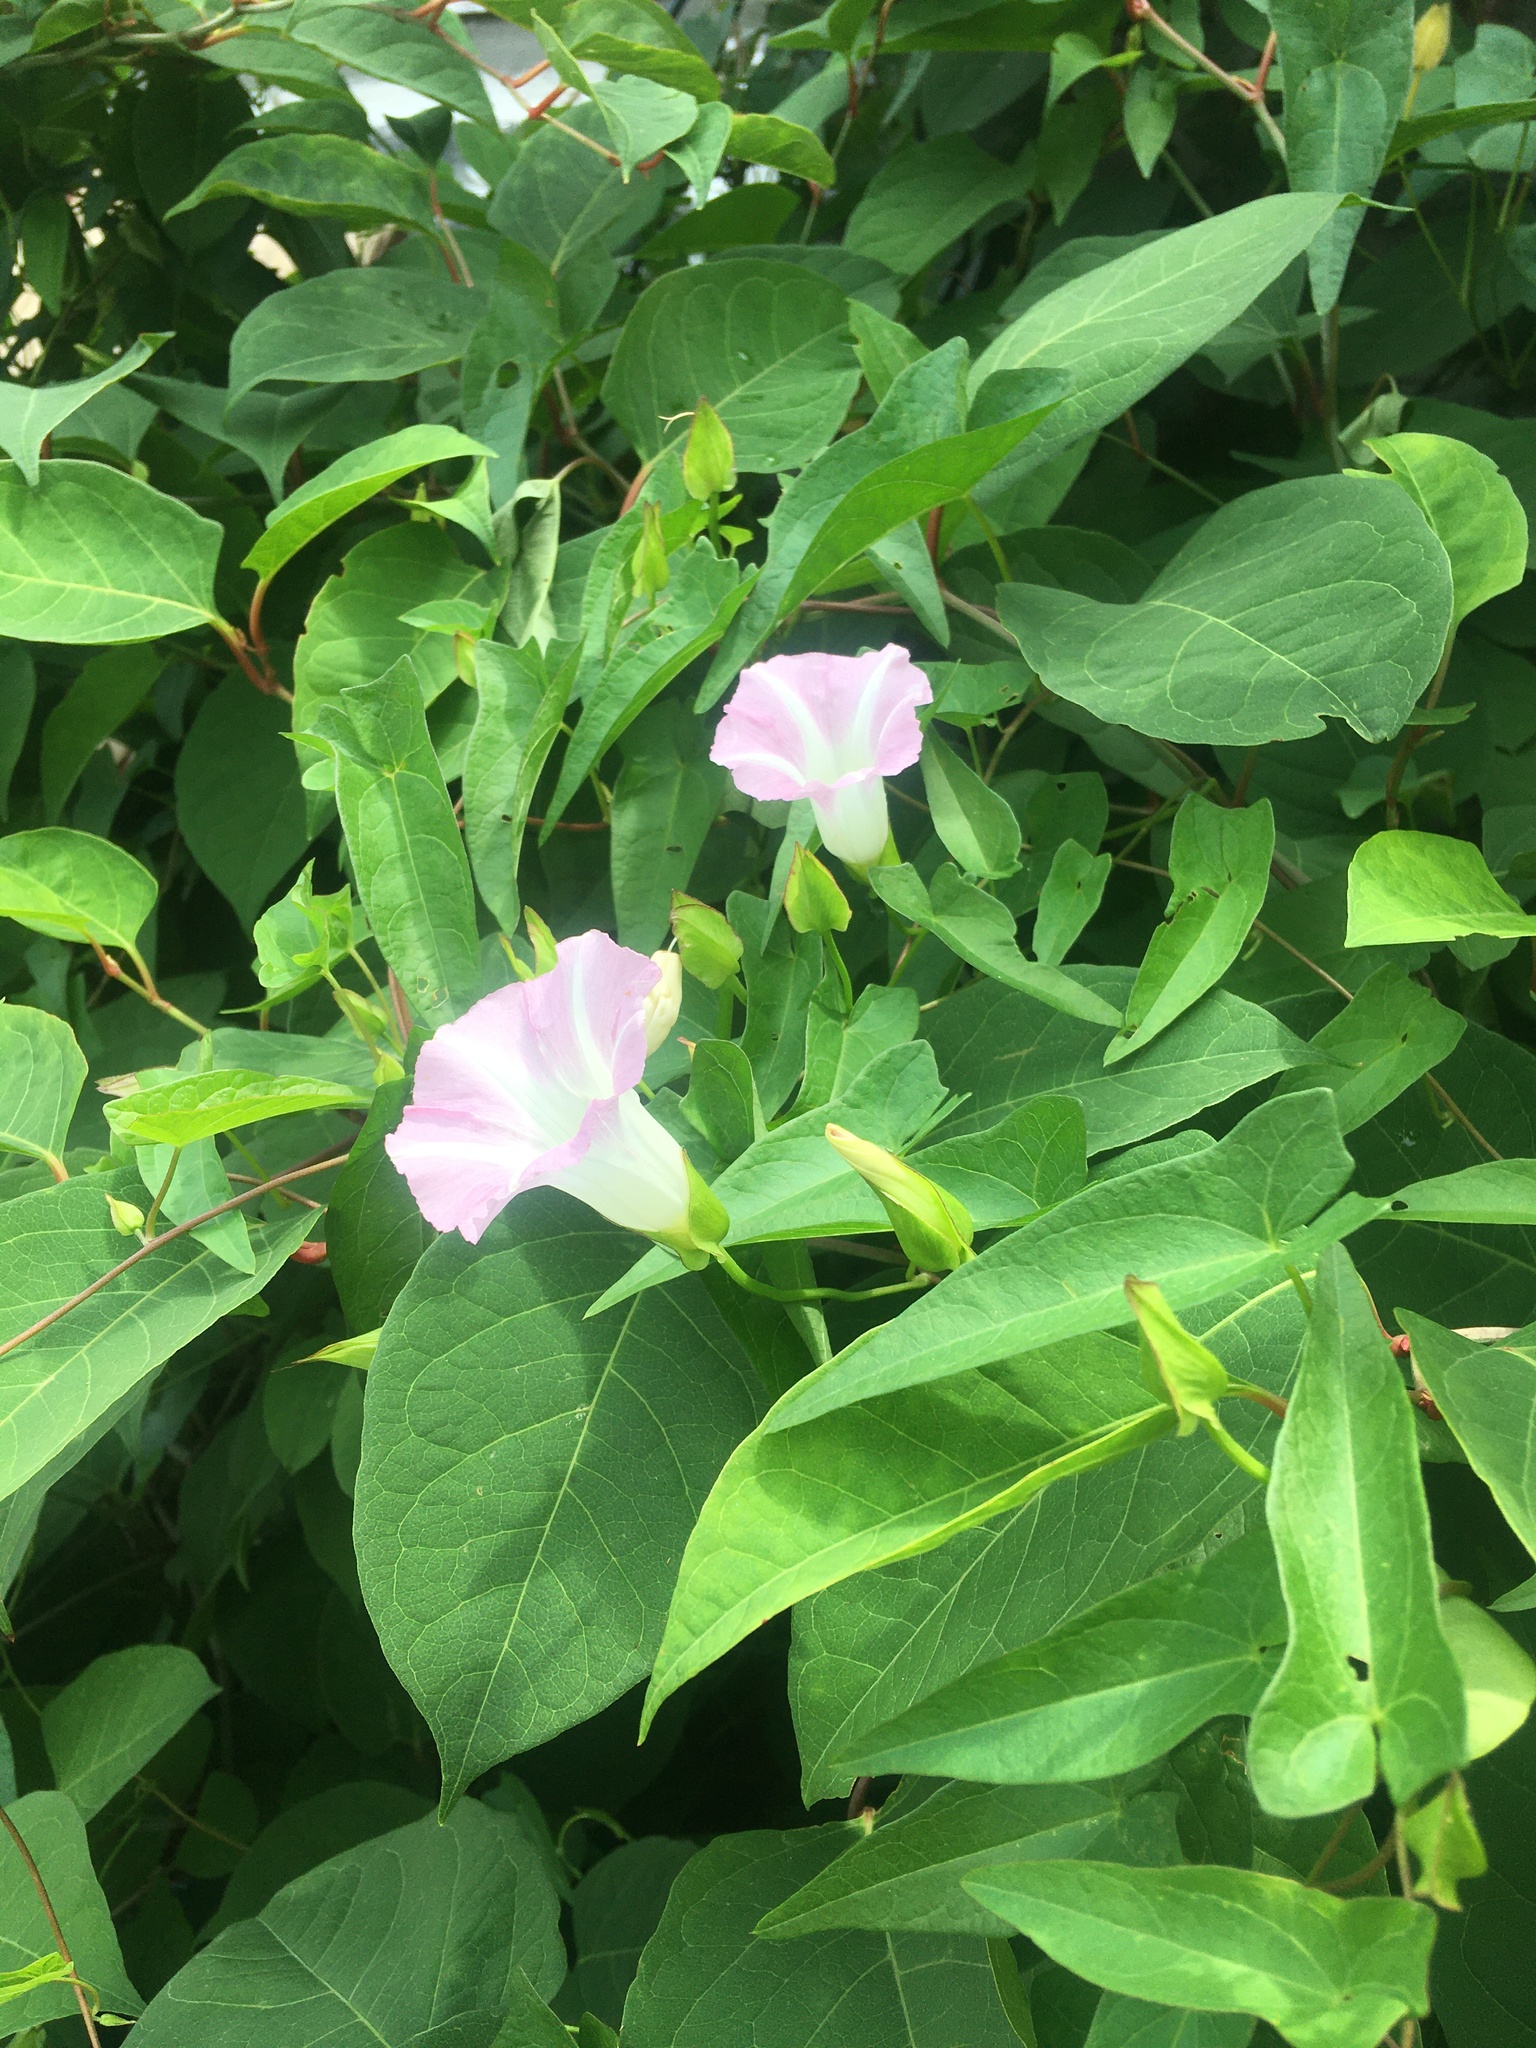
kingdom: Plantae
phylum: Tracheophyta
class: Magnoliopsida
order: Solanales
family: Convolvulaceae
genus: Calystegia
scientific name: Calystegia sepium
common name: Hedge bindweed
